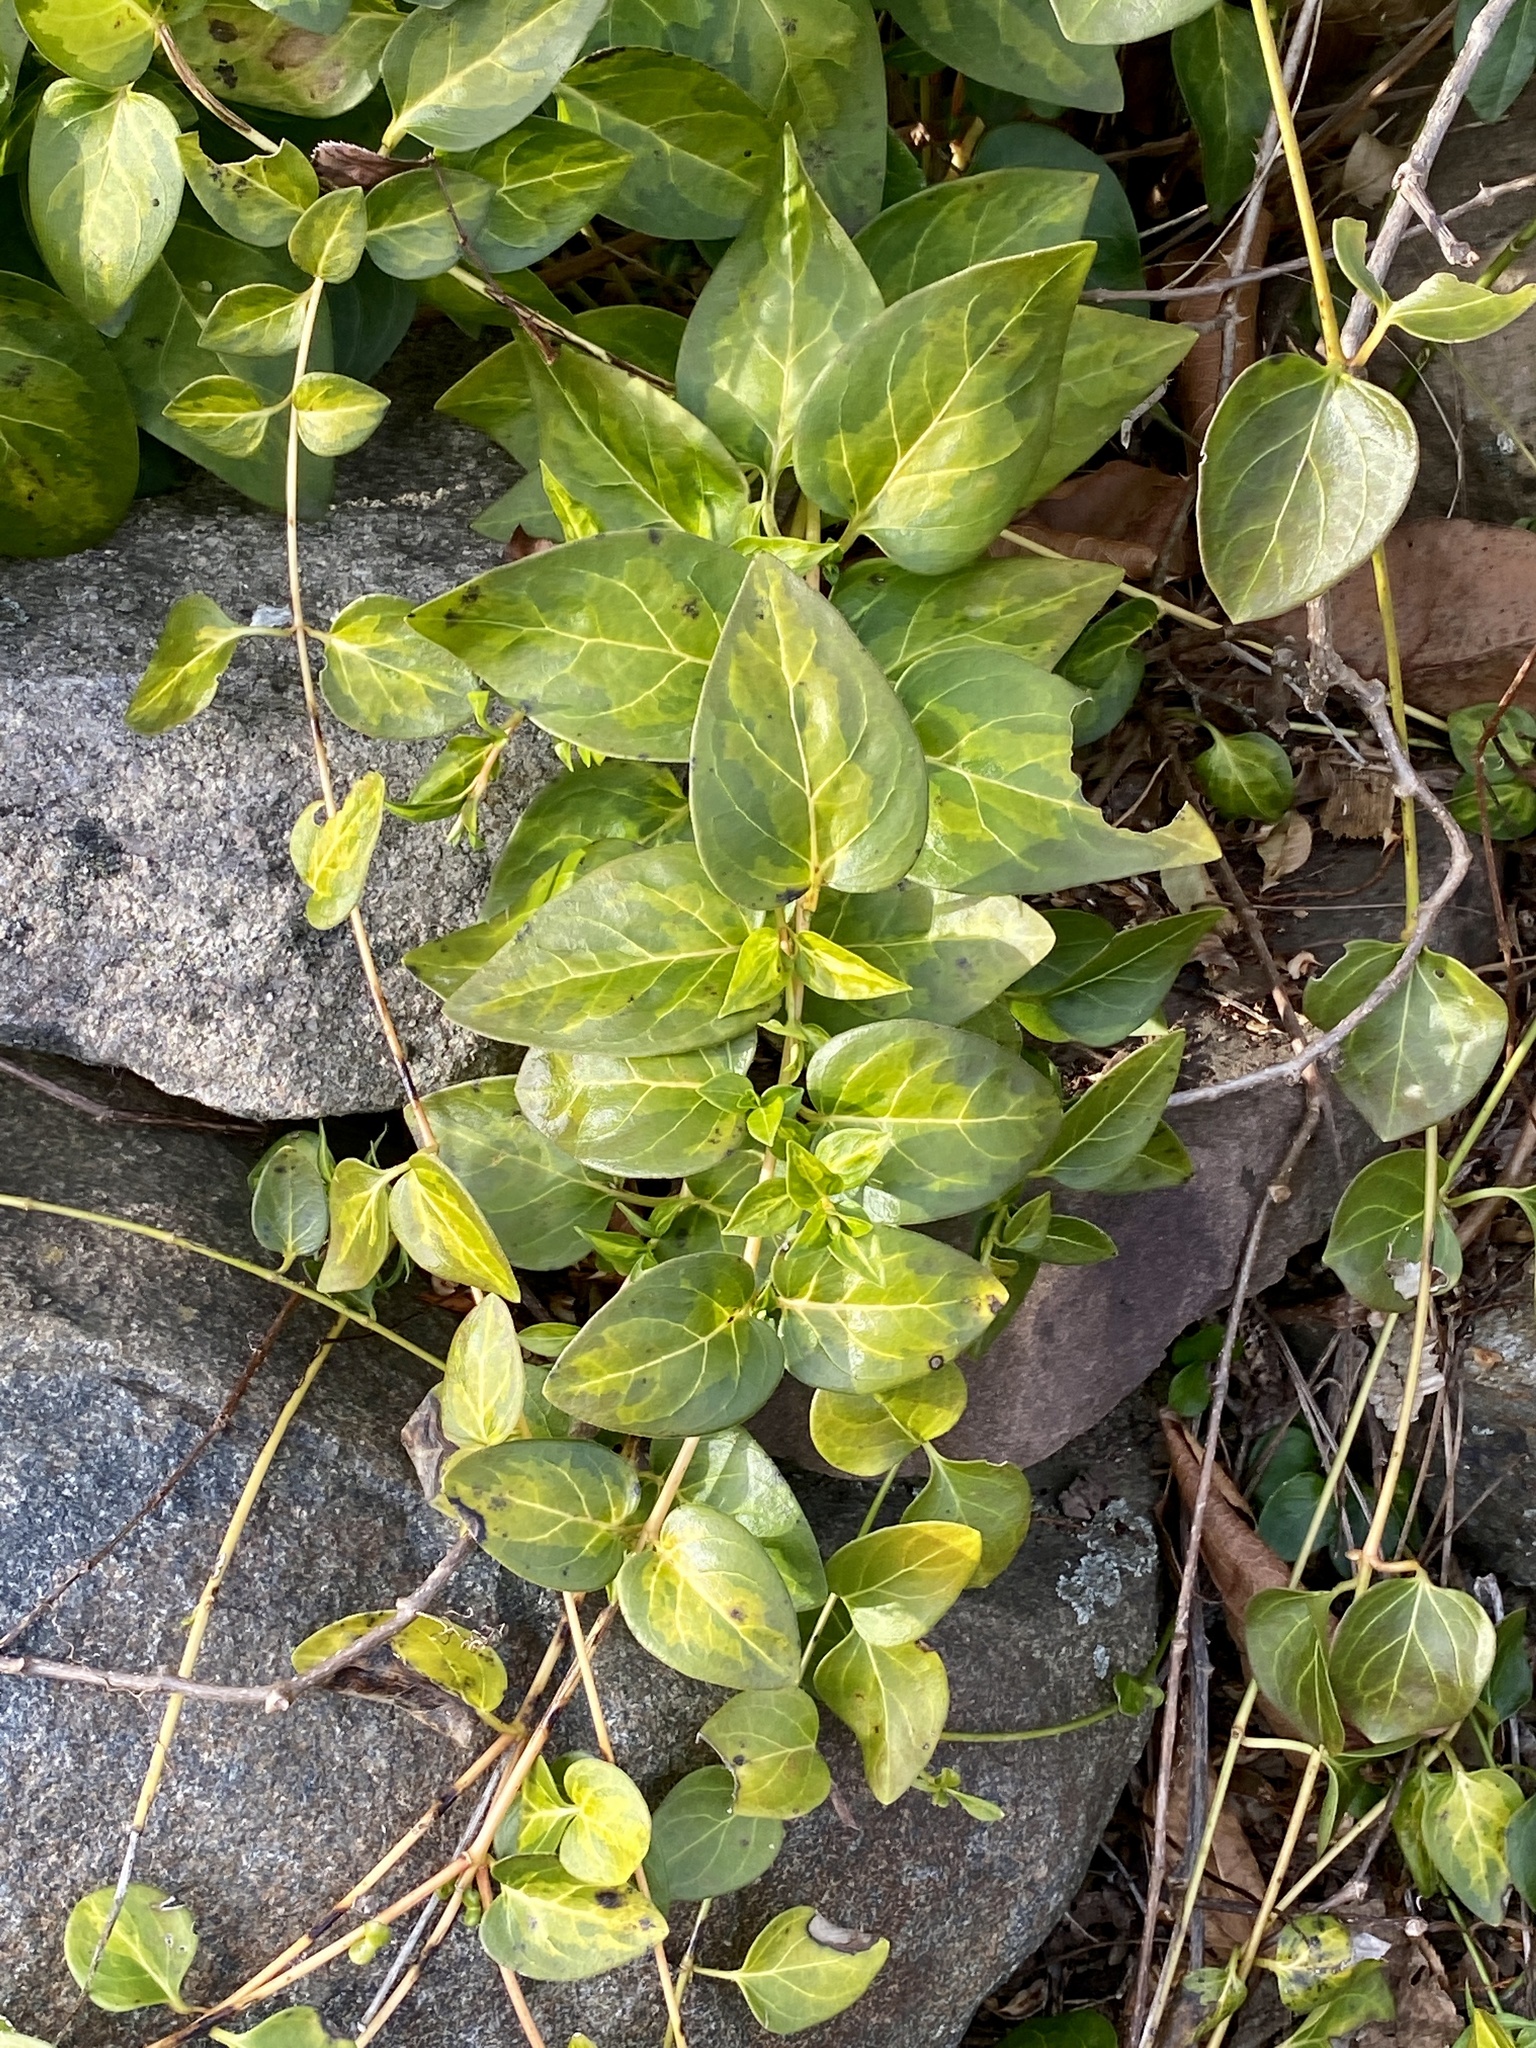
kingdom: Plantae
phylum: Tracheophyta
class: Magnoliopsida
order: Gentianales
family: Apocynaceae
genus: Vinca
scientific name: Vinca major
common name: Greater periwinkle
